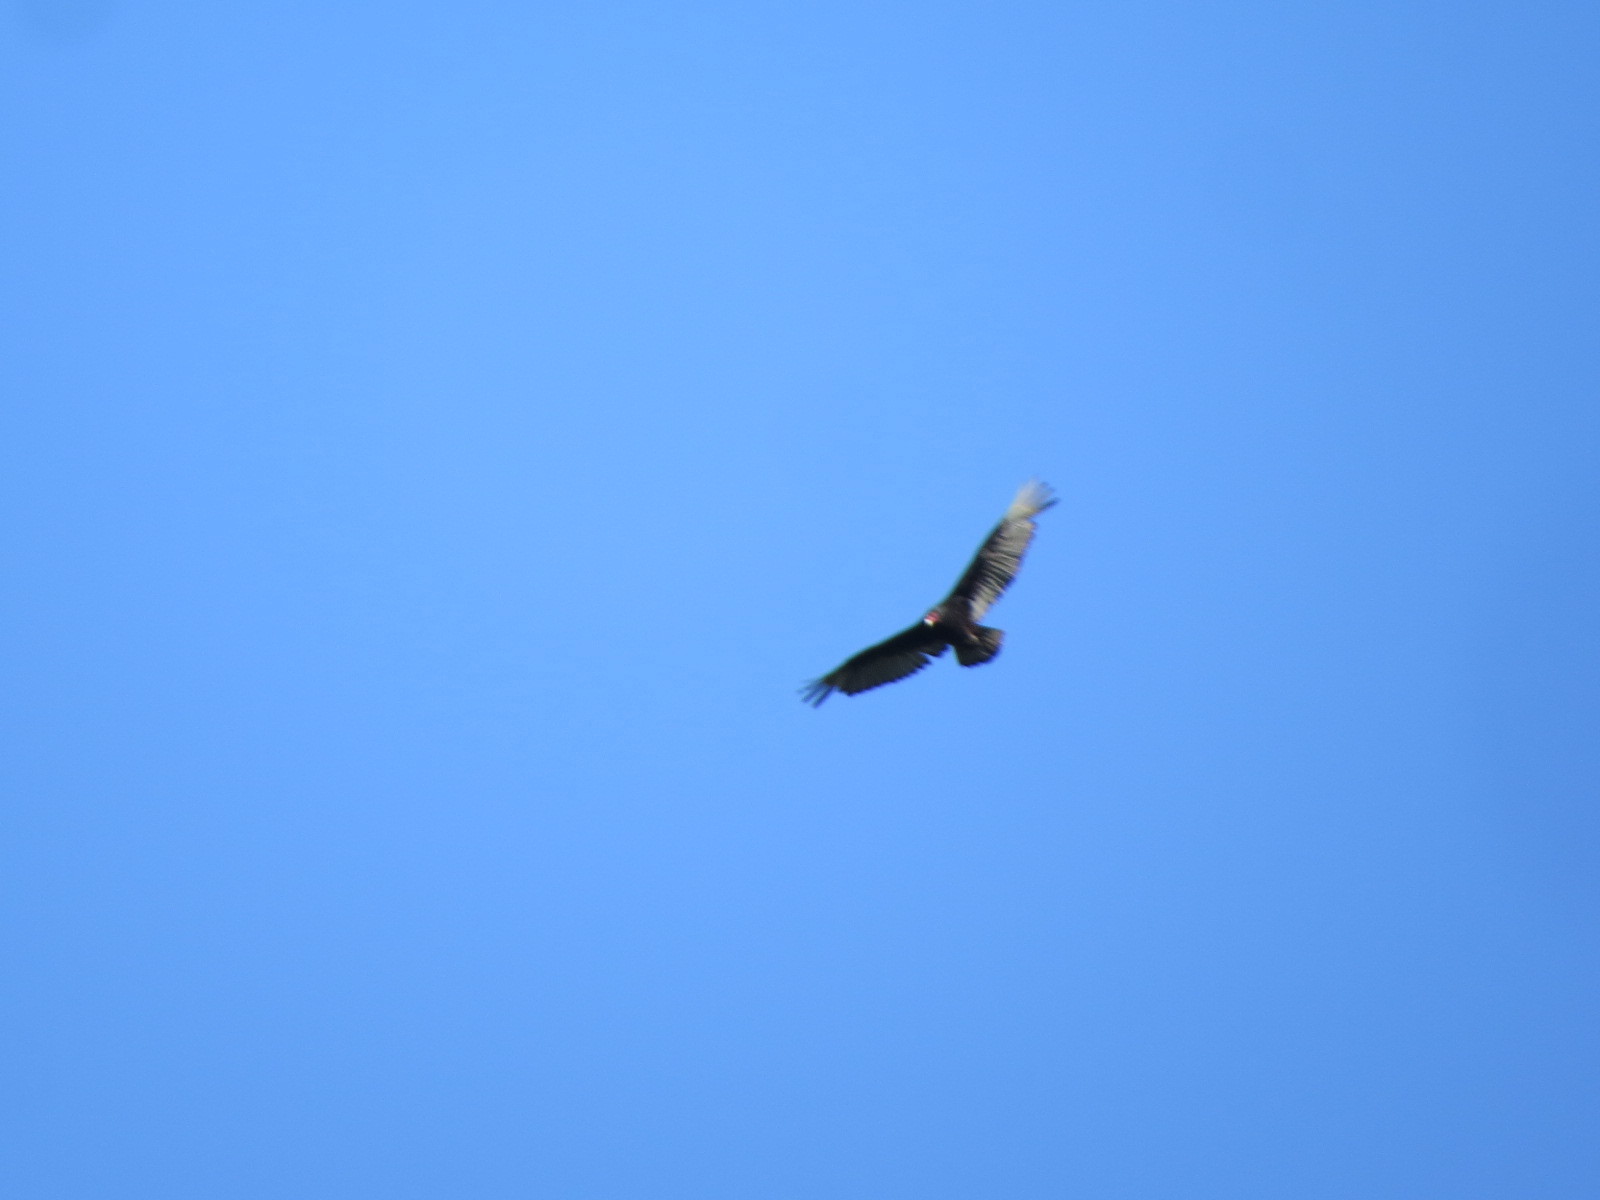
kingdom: Animalia
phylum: Chordata
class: Aves
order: Accipitriformes
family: Cathartidae
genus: Cathartes
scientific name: Cathartes aura
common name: Turkey vulture
